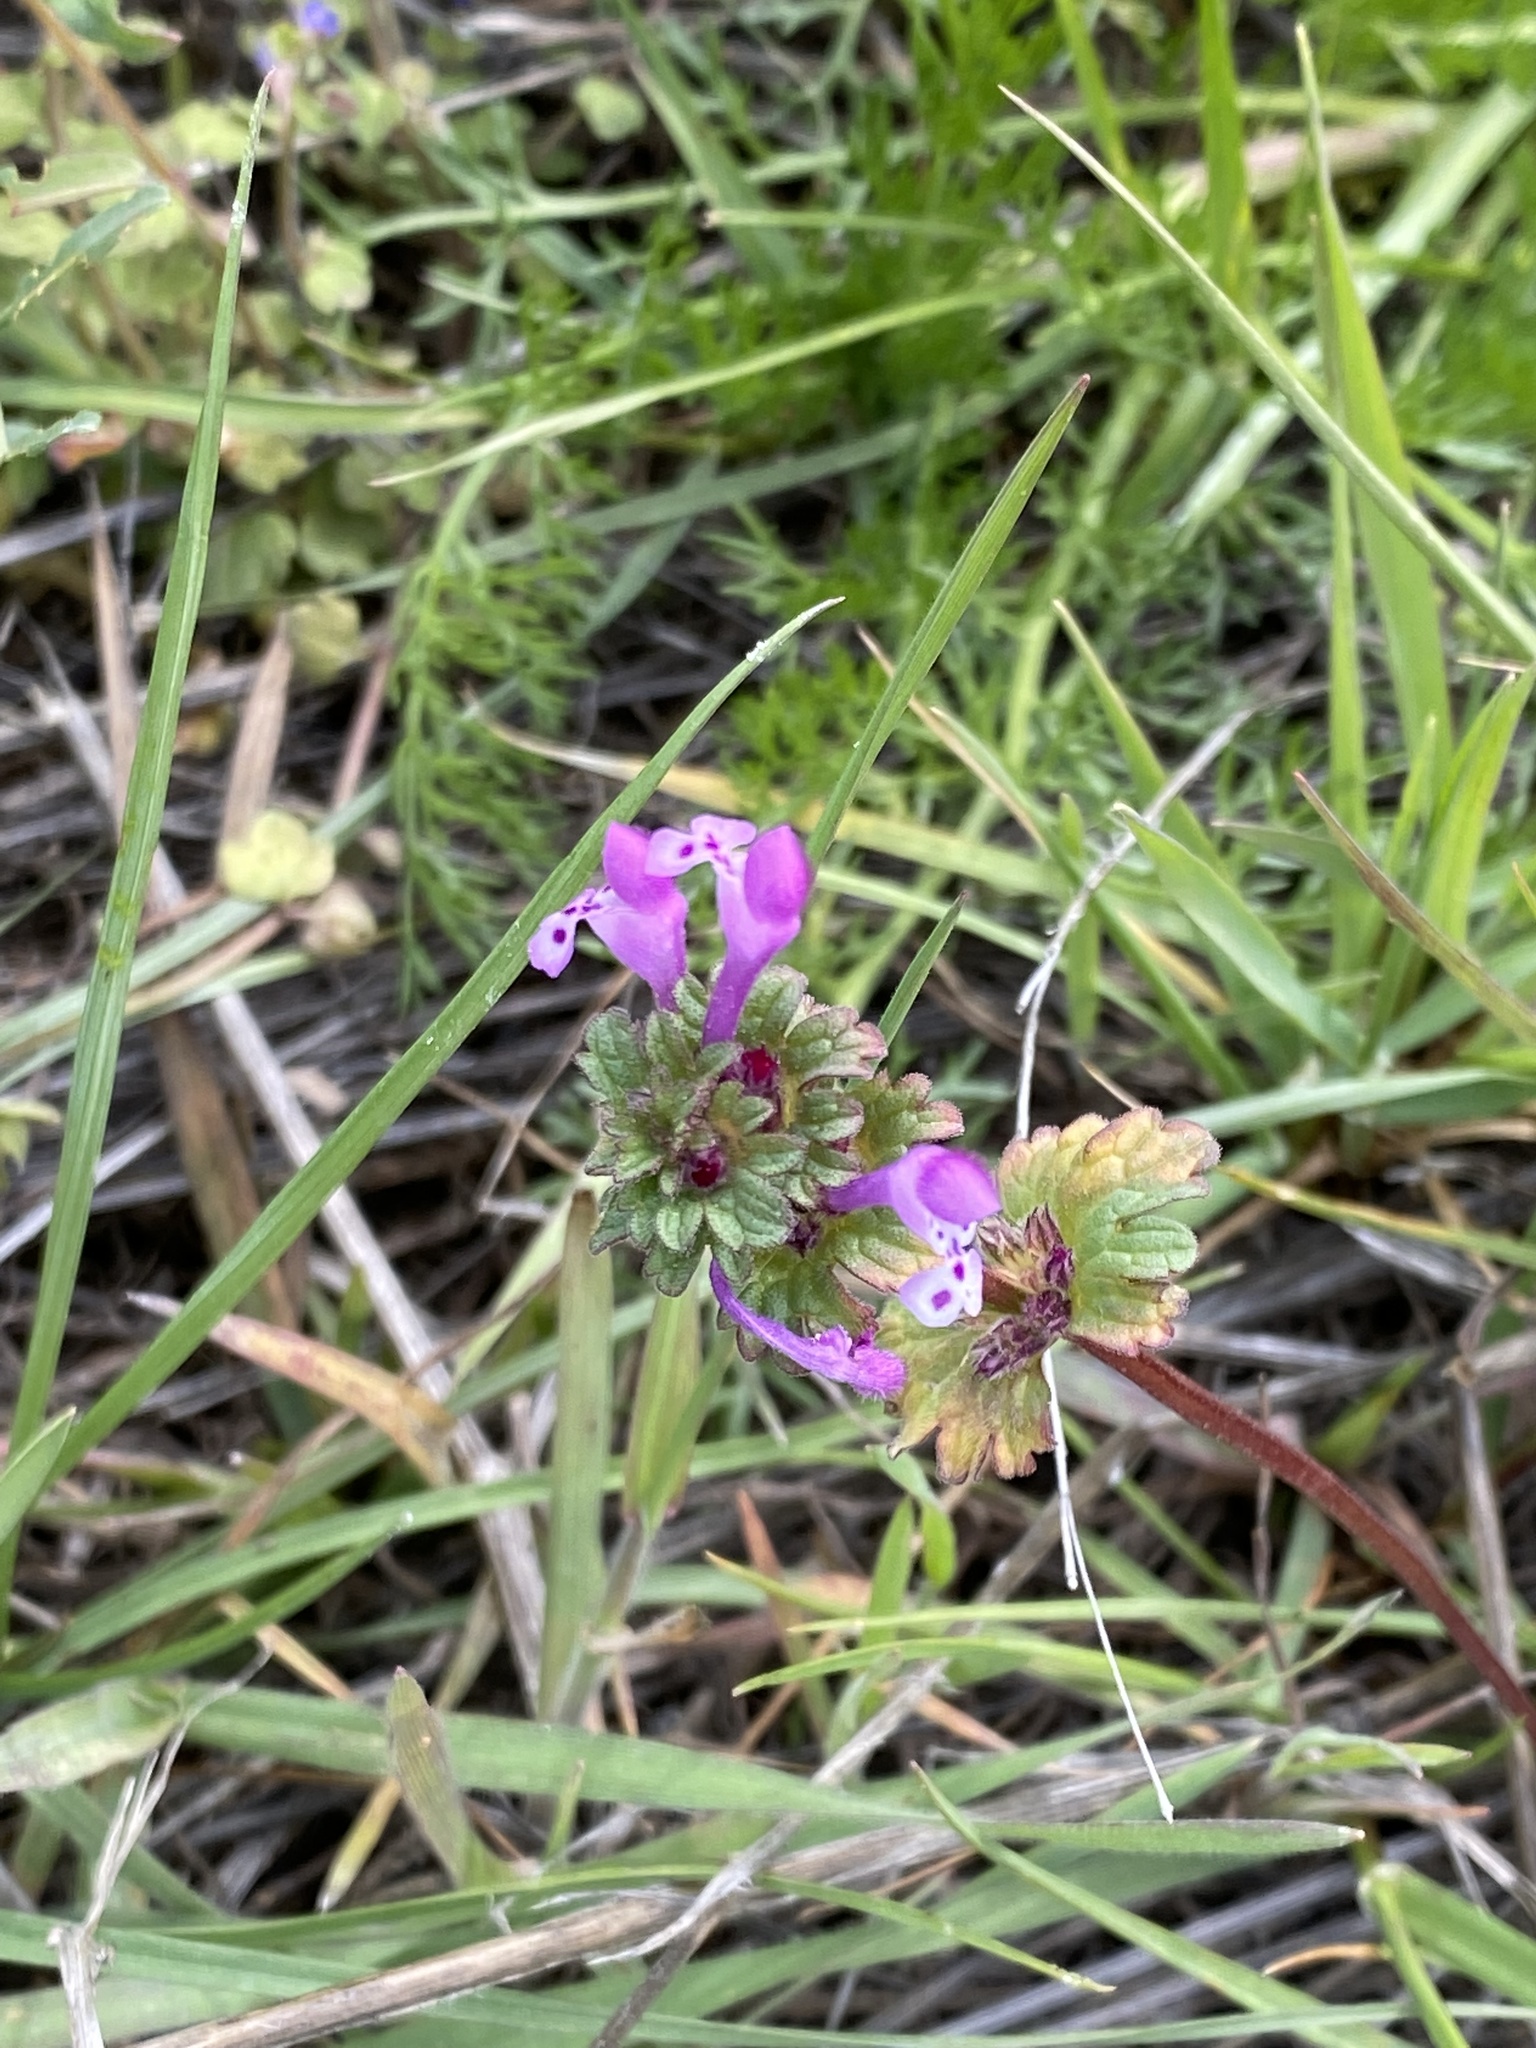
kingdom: Plantae
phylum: Tracheophyta
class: Magnoliopsida
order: Lamiales
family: Lamiaceae
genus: Lamium
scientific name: Lamium amplexicaule
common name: Henbit dead-nettle
